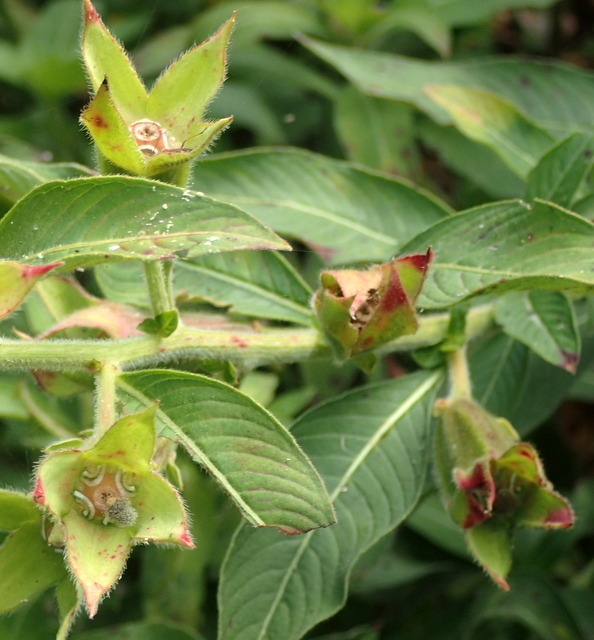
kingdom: Plantae
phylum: Tracheophyta
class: Magnoliopsida
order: Myrtales
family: Onagraceae
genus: Ludwigia
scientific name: Ludwigia peruviana
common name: Peruvian primrose-willow
